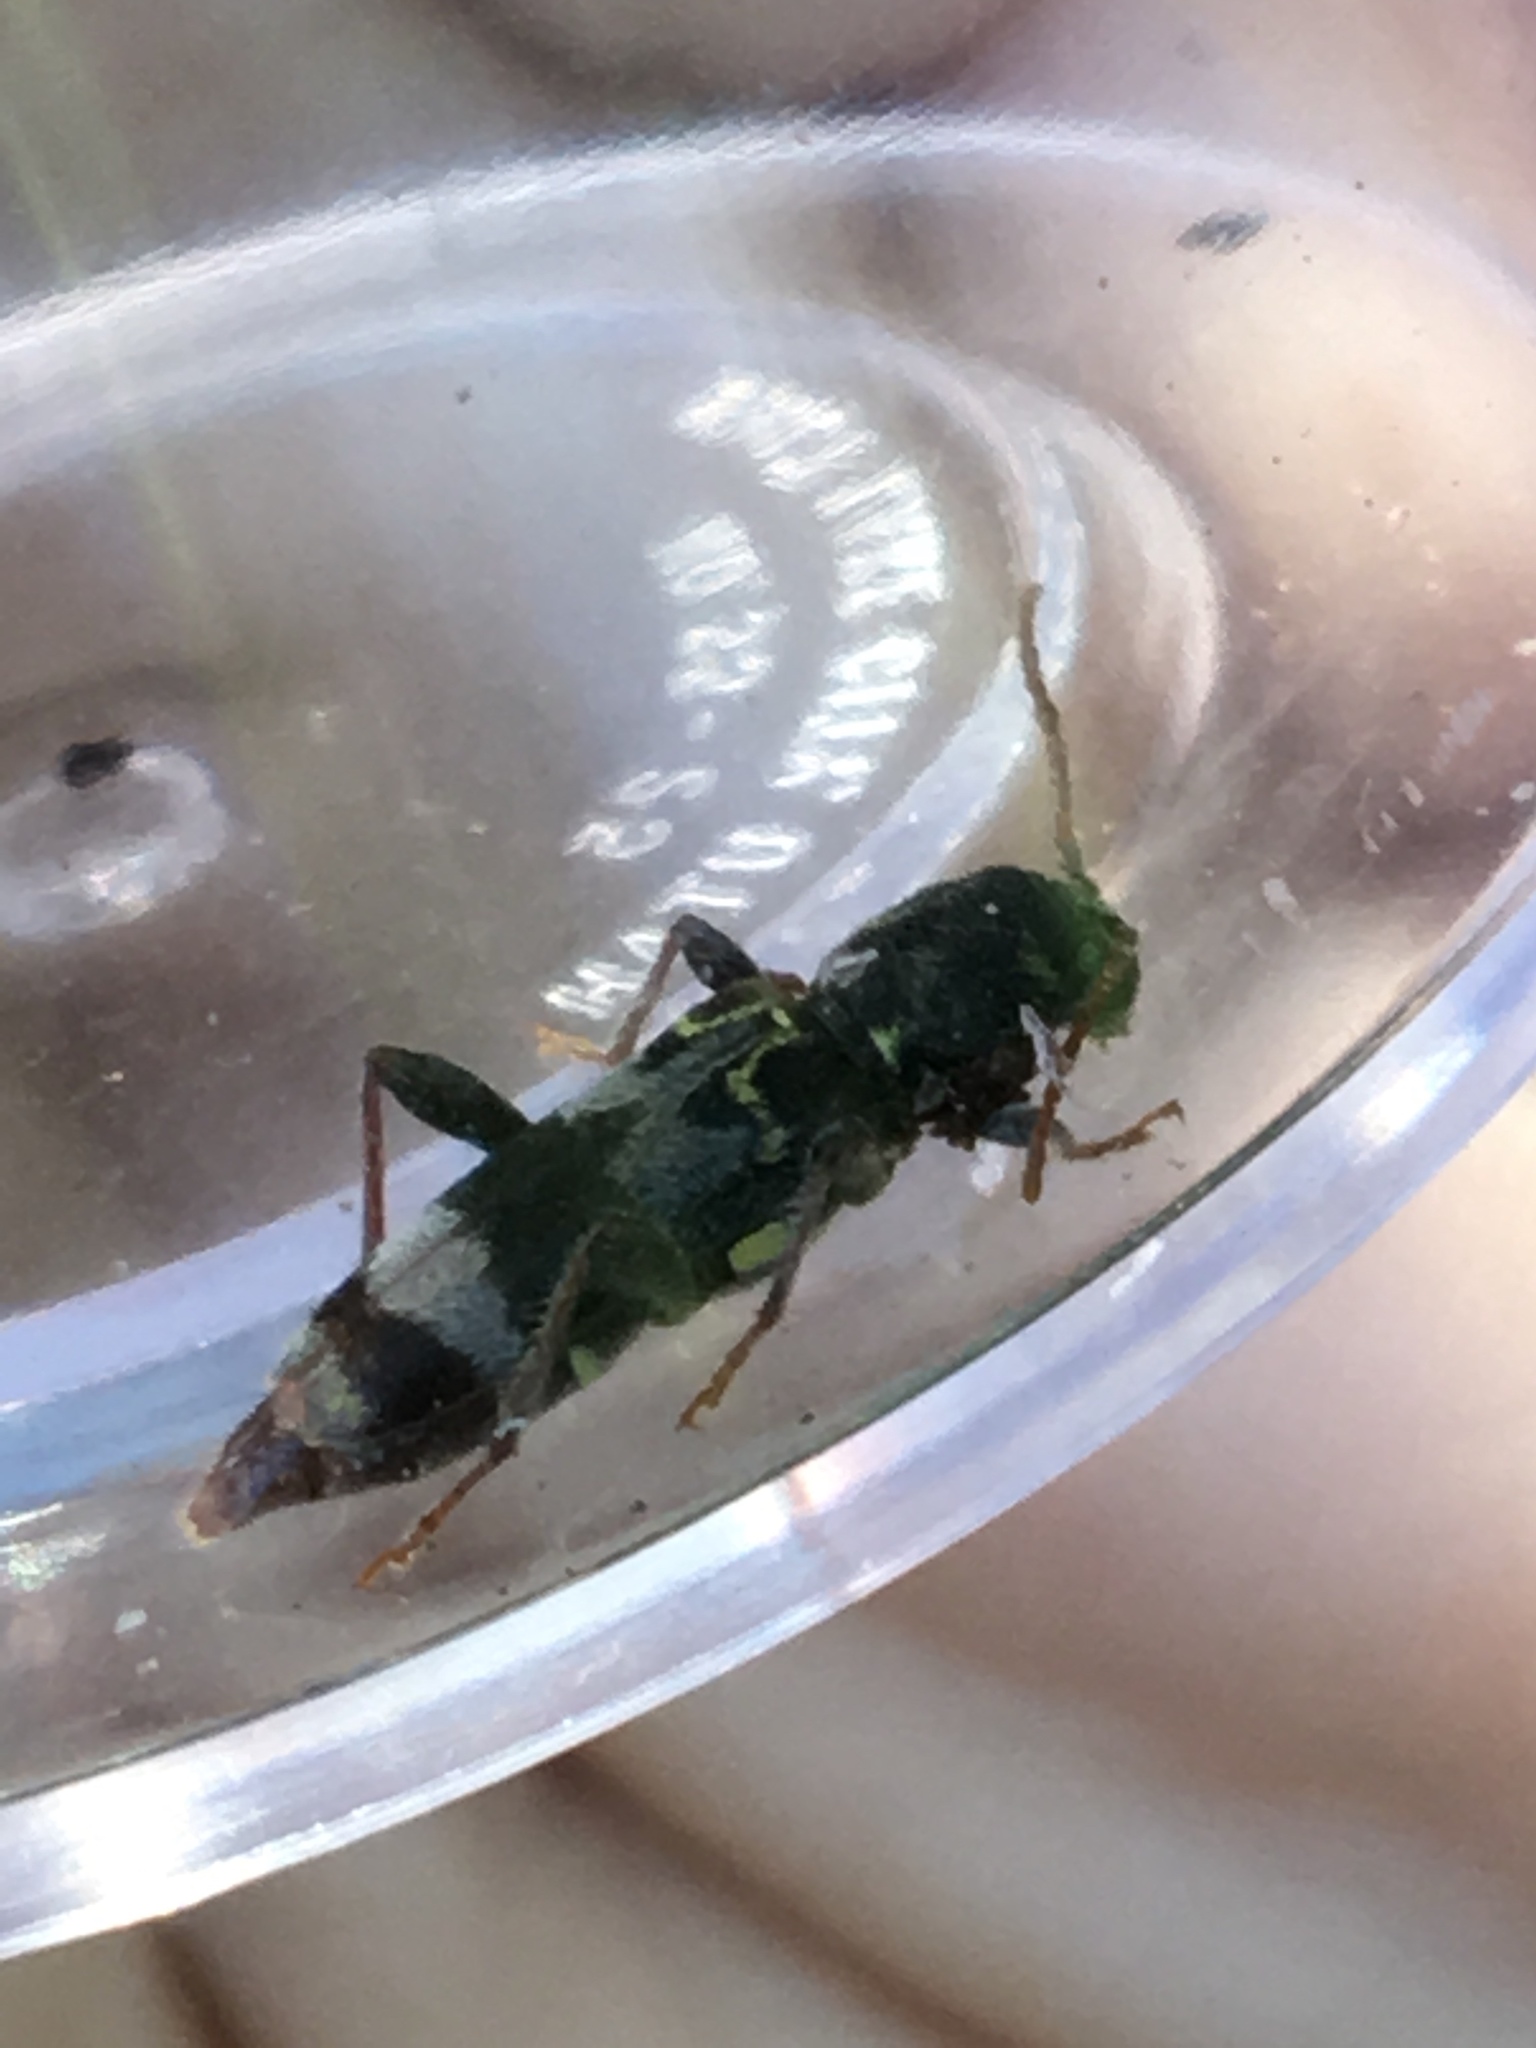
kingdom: Animalia
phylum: Arthropoda
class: Insecta
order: Coleoptera
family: Cerambycidae
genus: Xylotrechus
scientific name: Xylotrechus colonus
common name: Long-horned beetle
